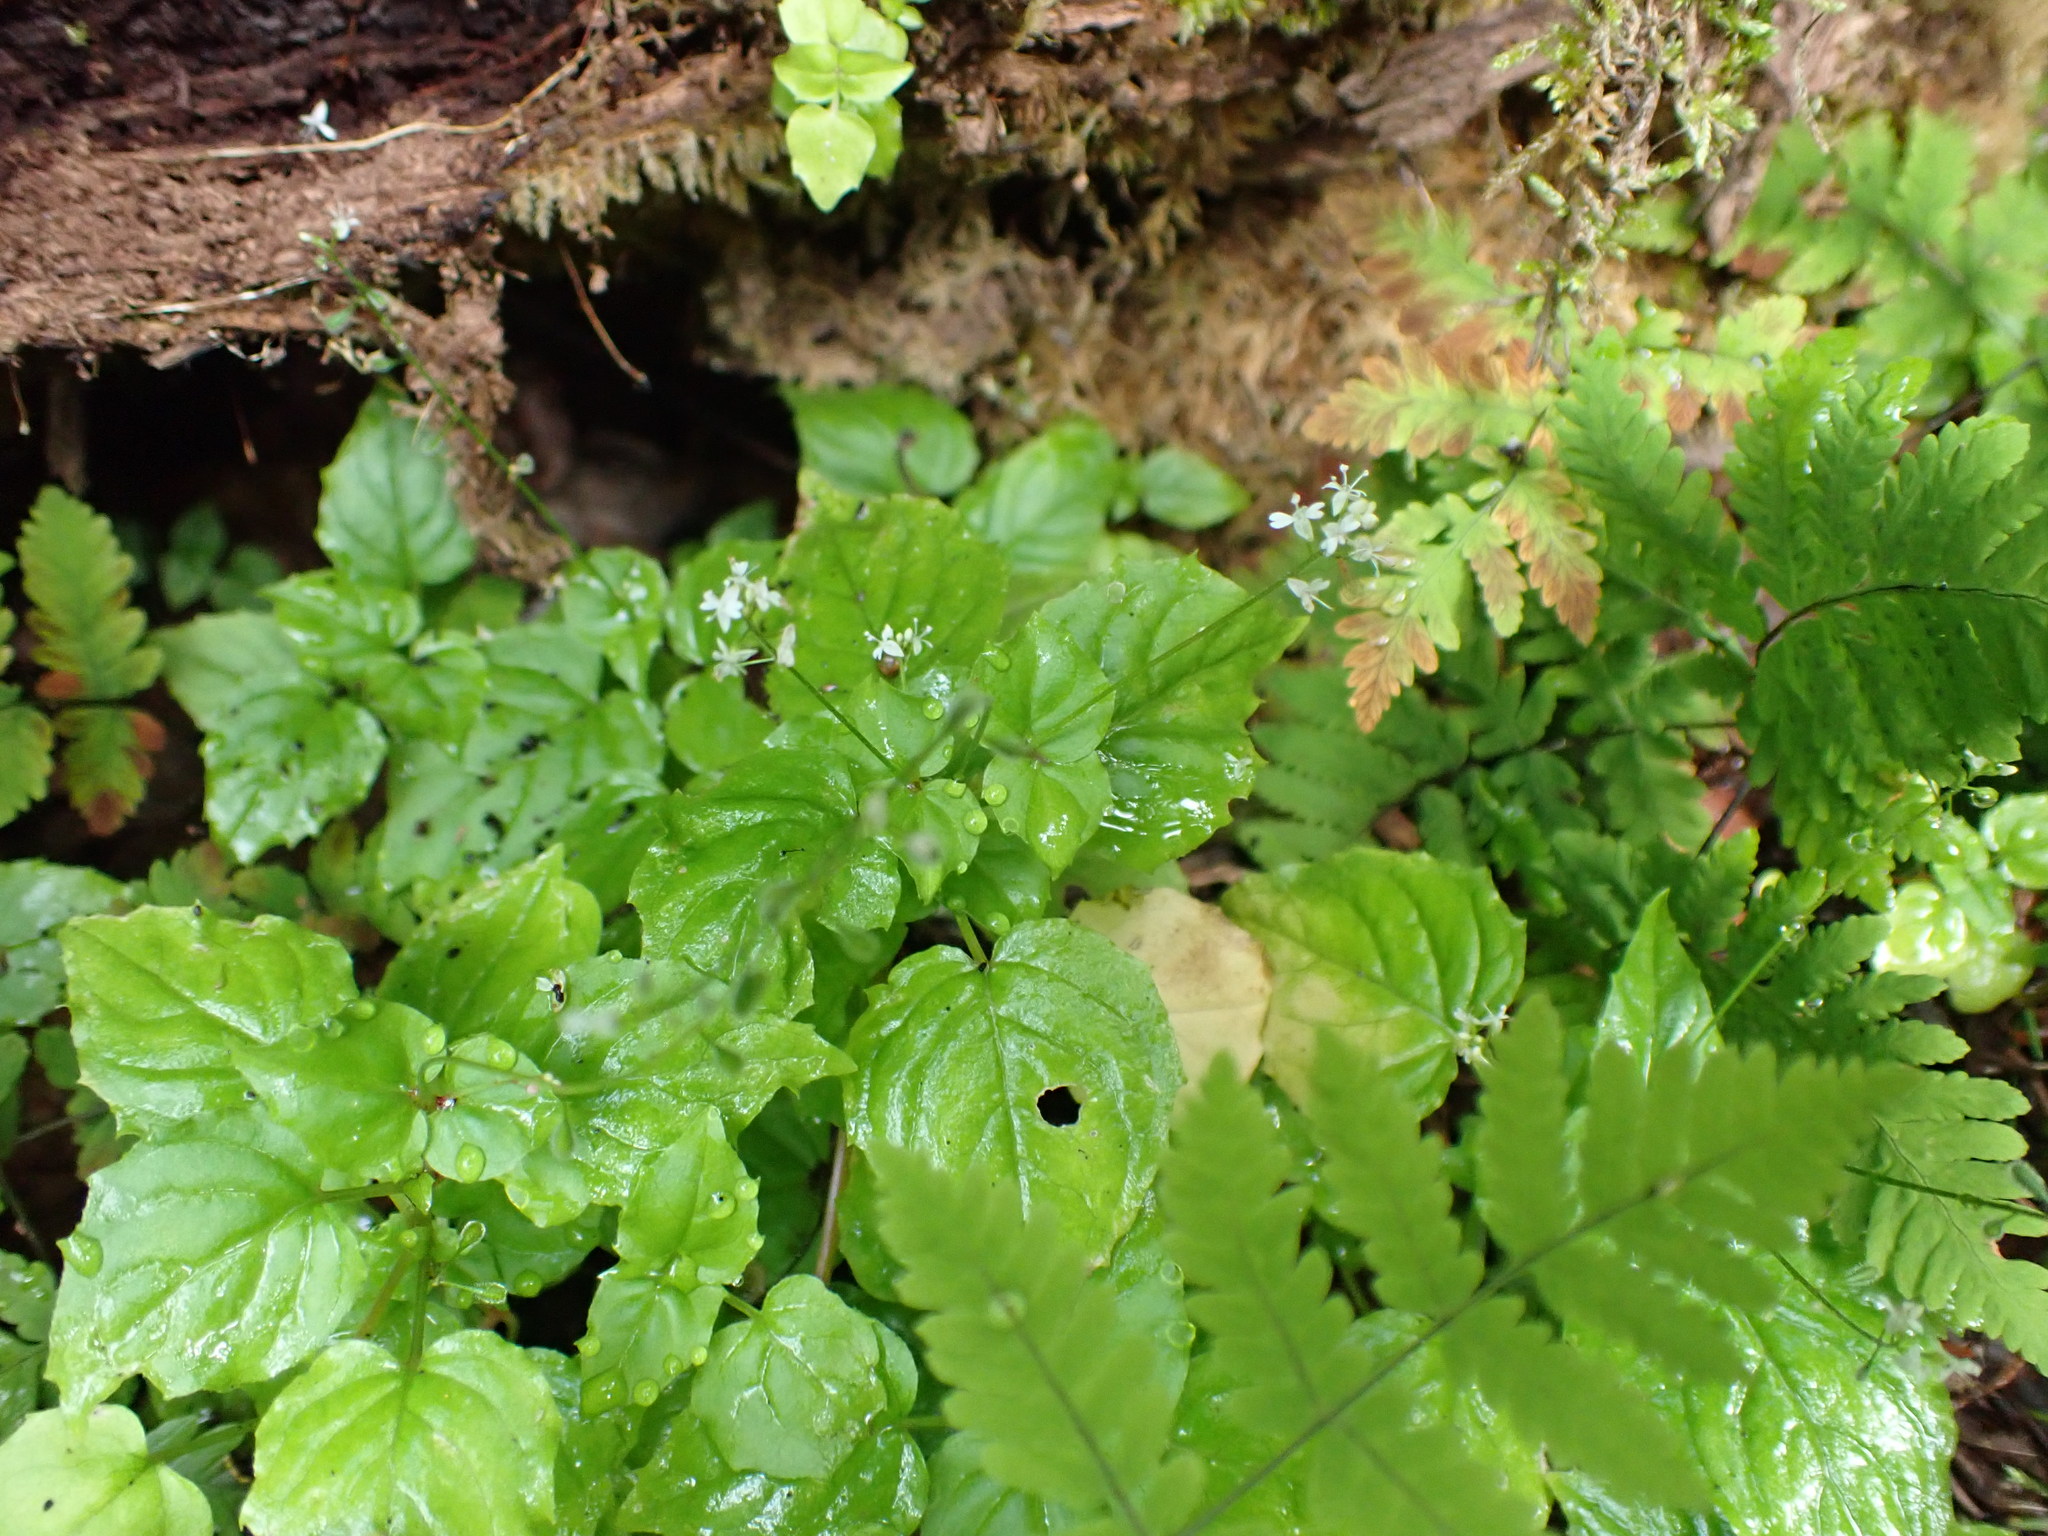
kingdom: Plantae
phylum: Tracheophyta
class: Magnoliopsida
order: Myrtales
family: Onagraceae
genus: Circaea
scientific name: Circaea alpina
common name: Alpine enchanter's-nightshade
